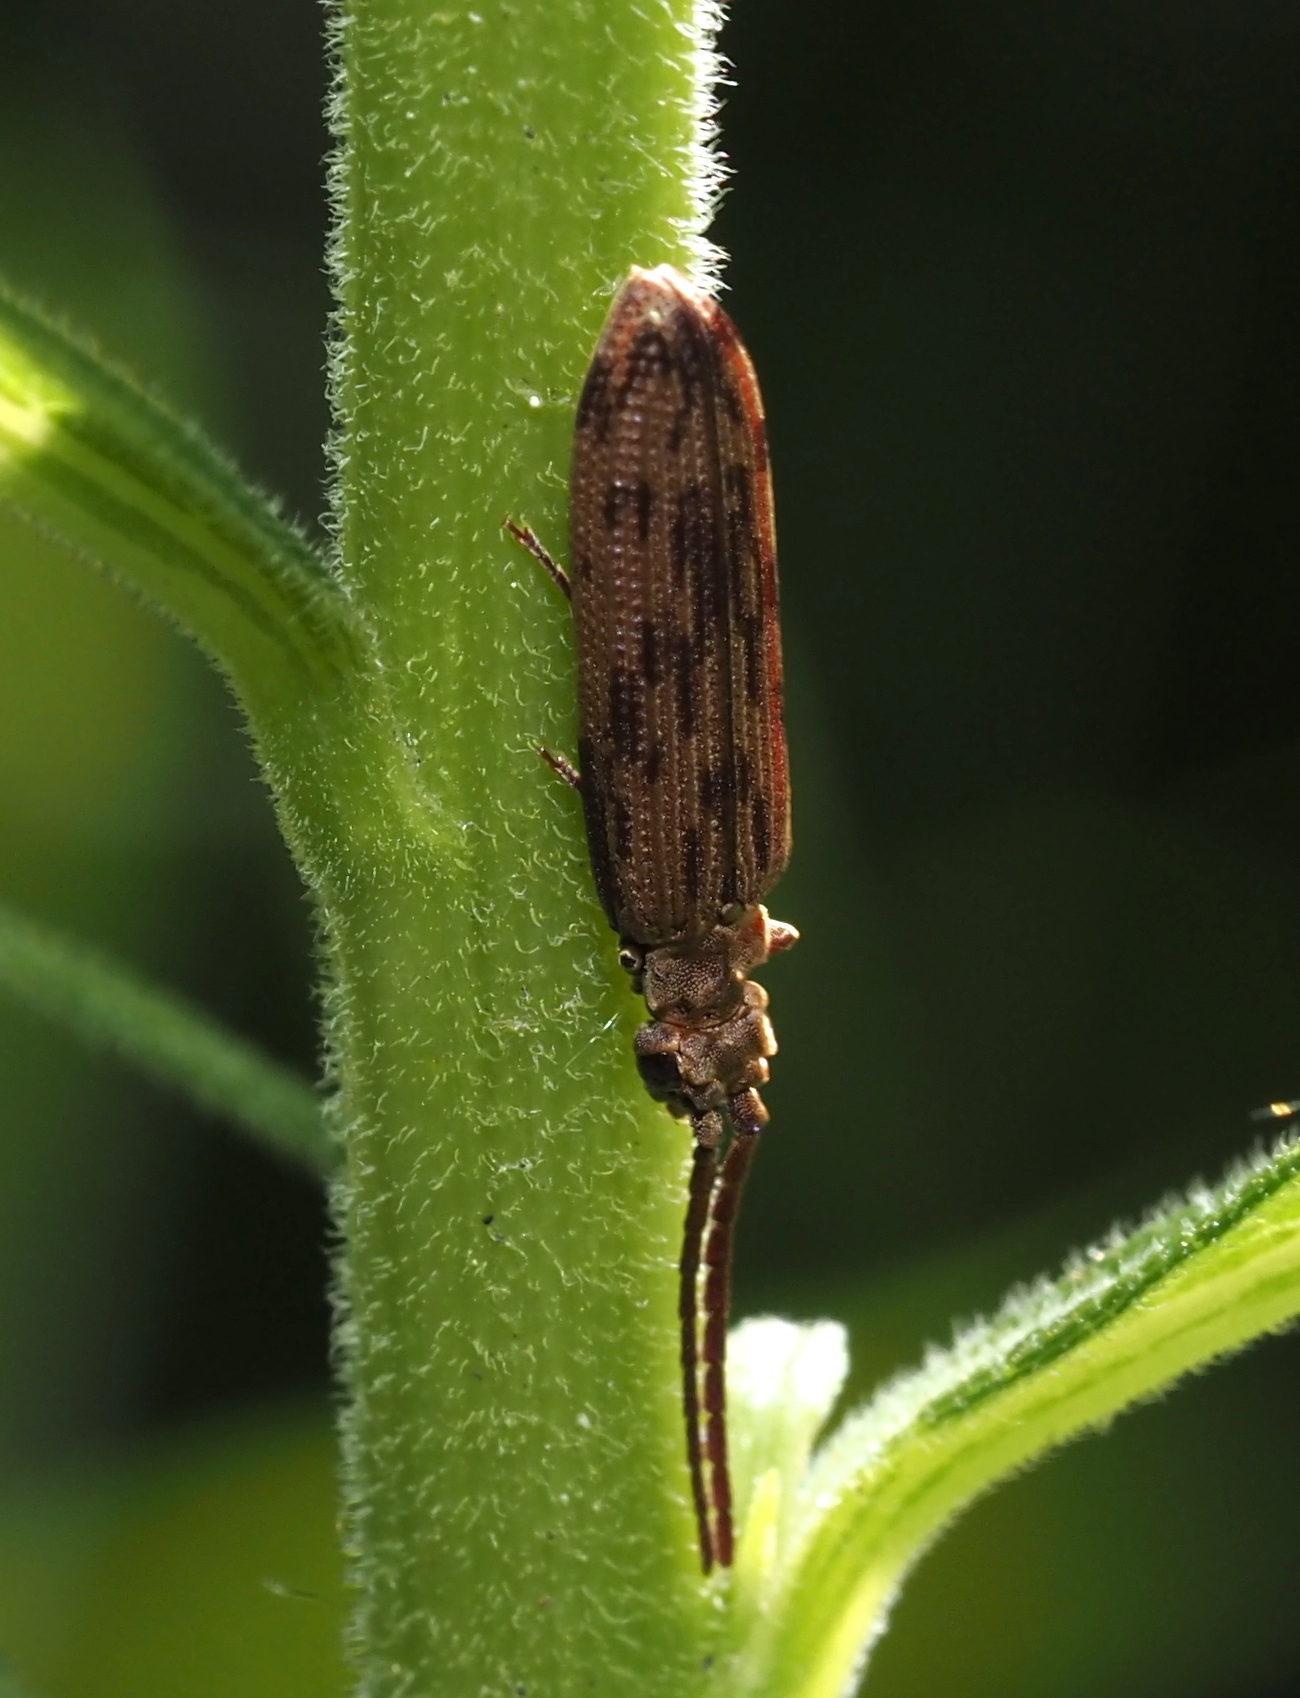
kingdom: Animalia
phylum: Arthropoda
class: Insecta
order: Coleoptera
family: Cupedidae
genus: Tenomerga
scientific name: Tenomerga cinerea
